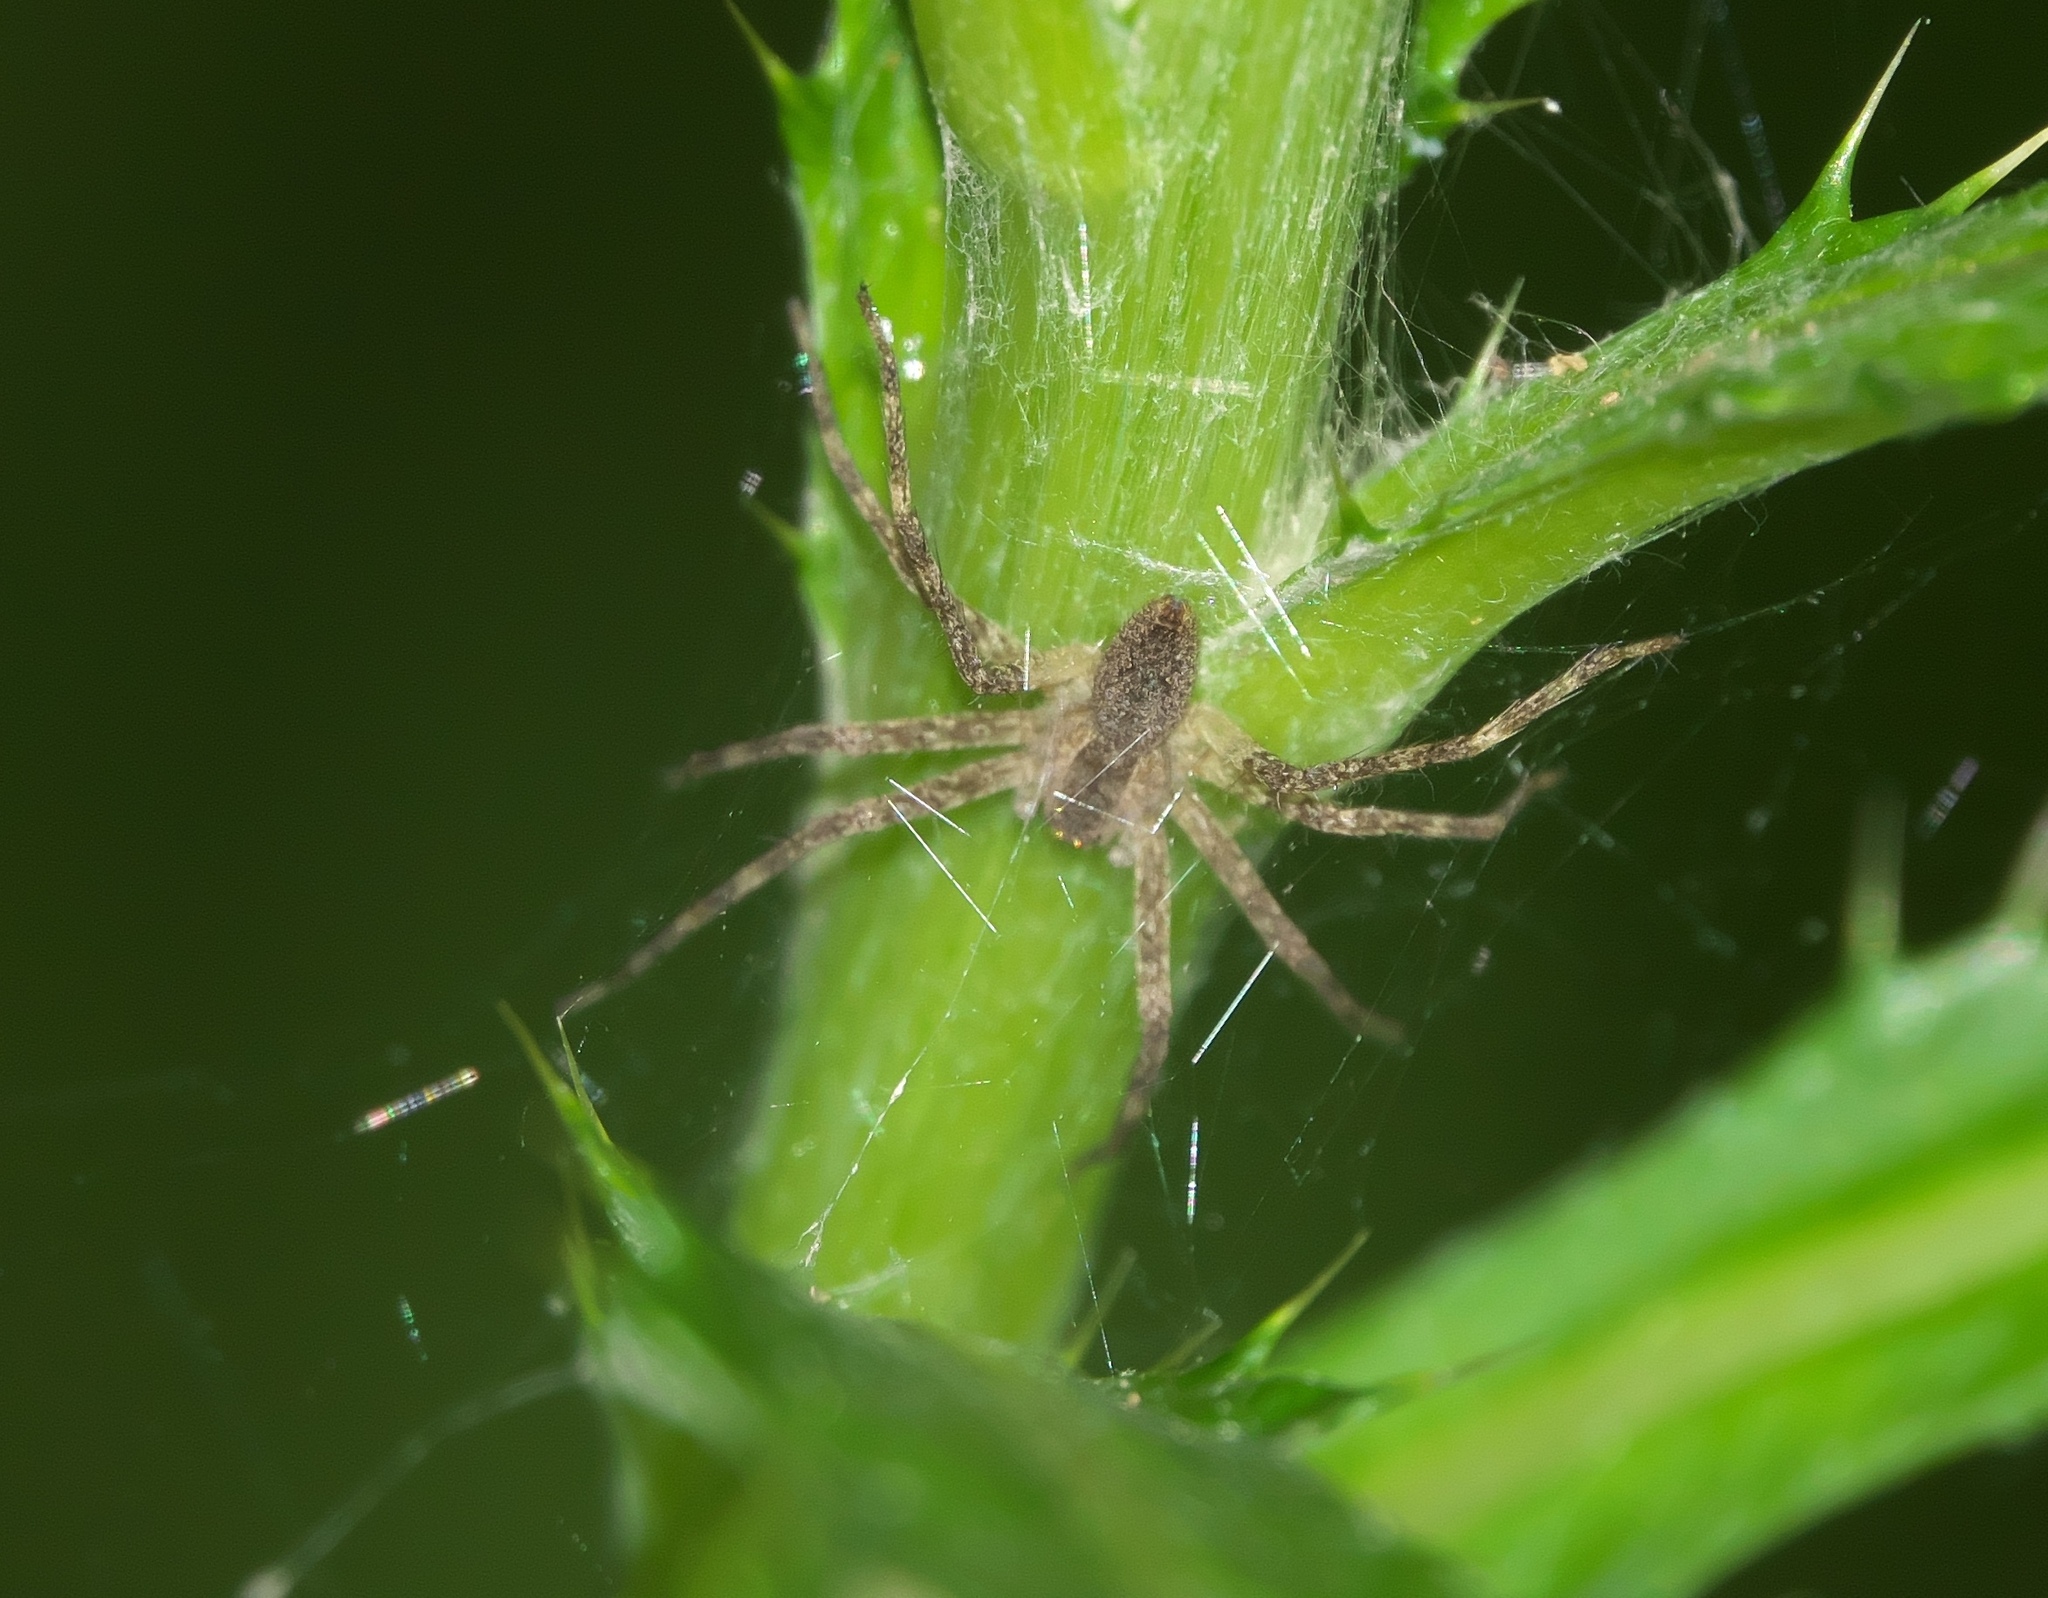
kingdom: Animalia
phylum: Arthropoda
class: Arachnida
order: Araneae
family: Pisauridae
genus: Pisaurina
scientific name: Pisaurina mira
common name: American nursery web spider
